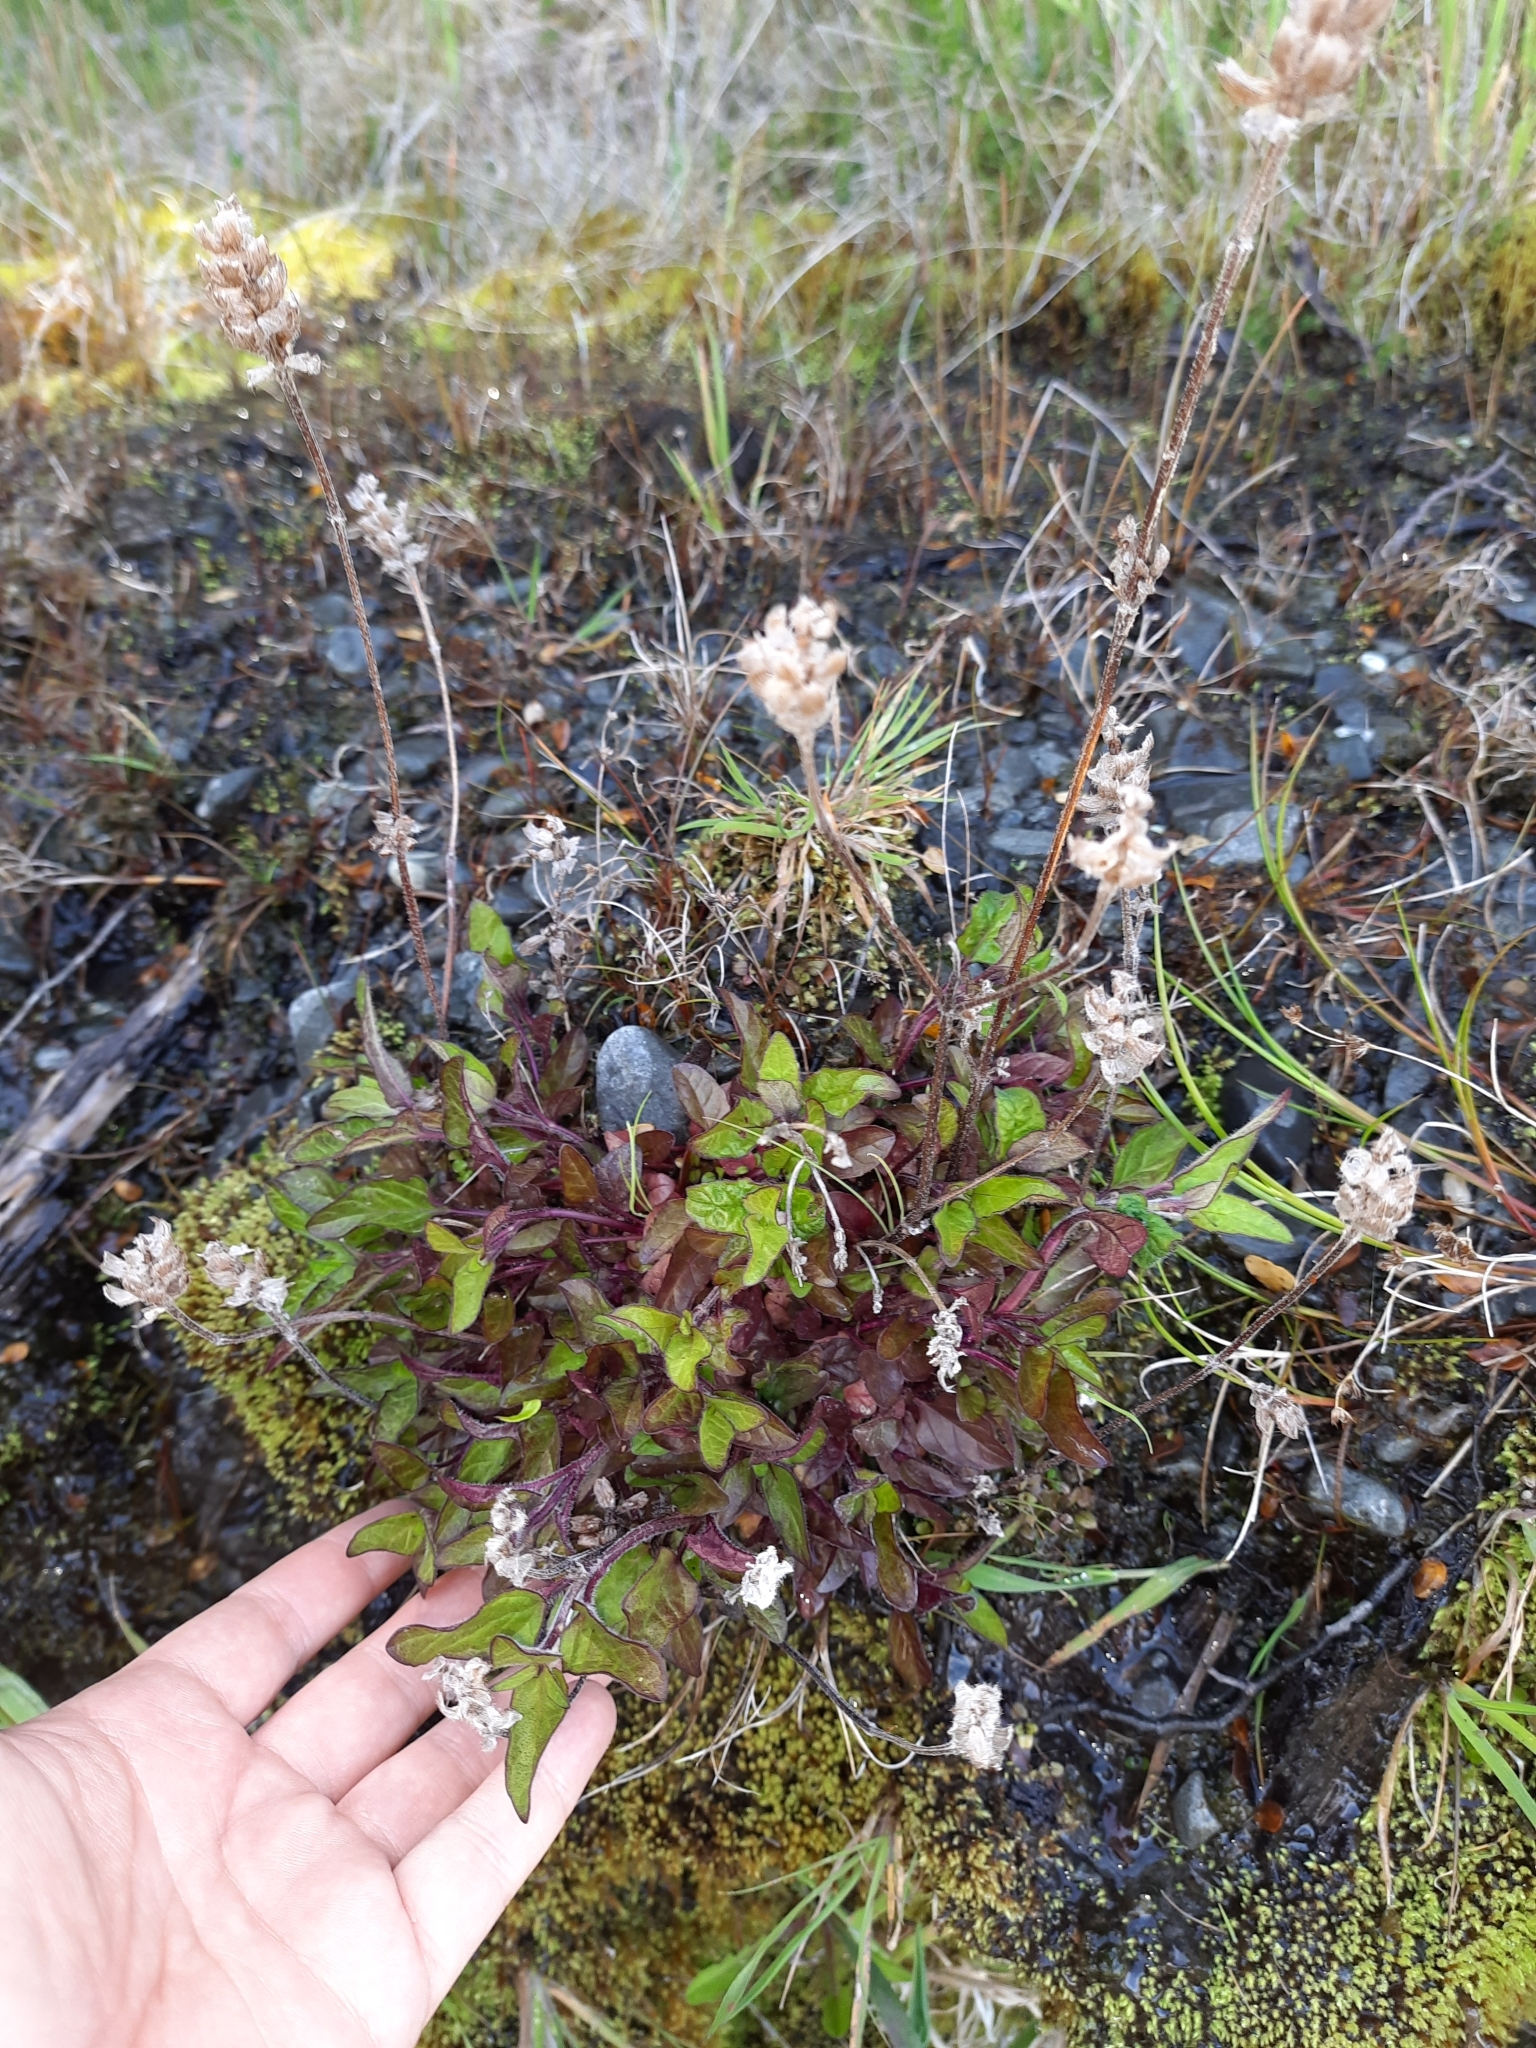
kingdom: Plantae
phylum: Tracheophyta
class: Magnoliopsida
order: Lamiales
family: Lamiaceae
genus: Prunella
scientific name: Prunella vulgaris
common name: Heal-all
